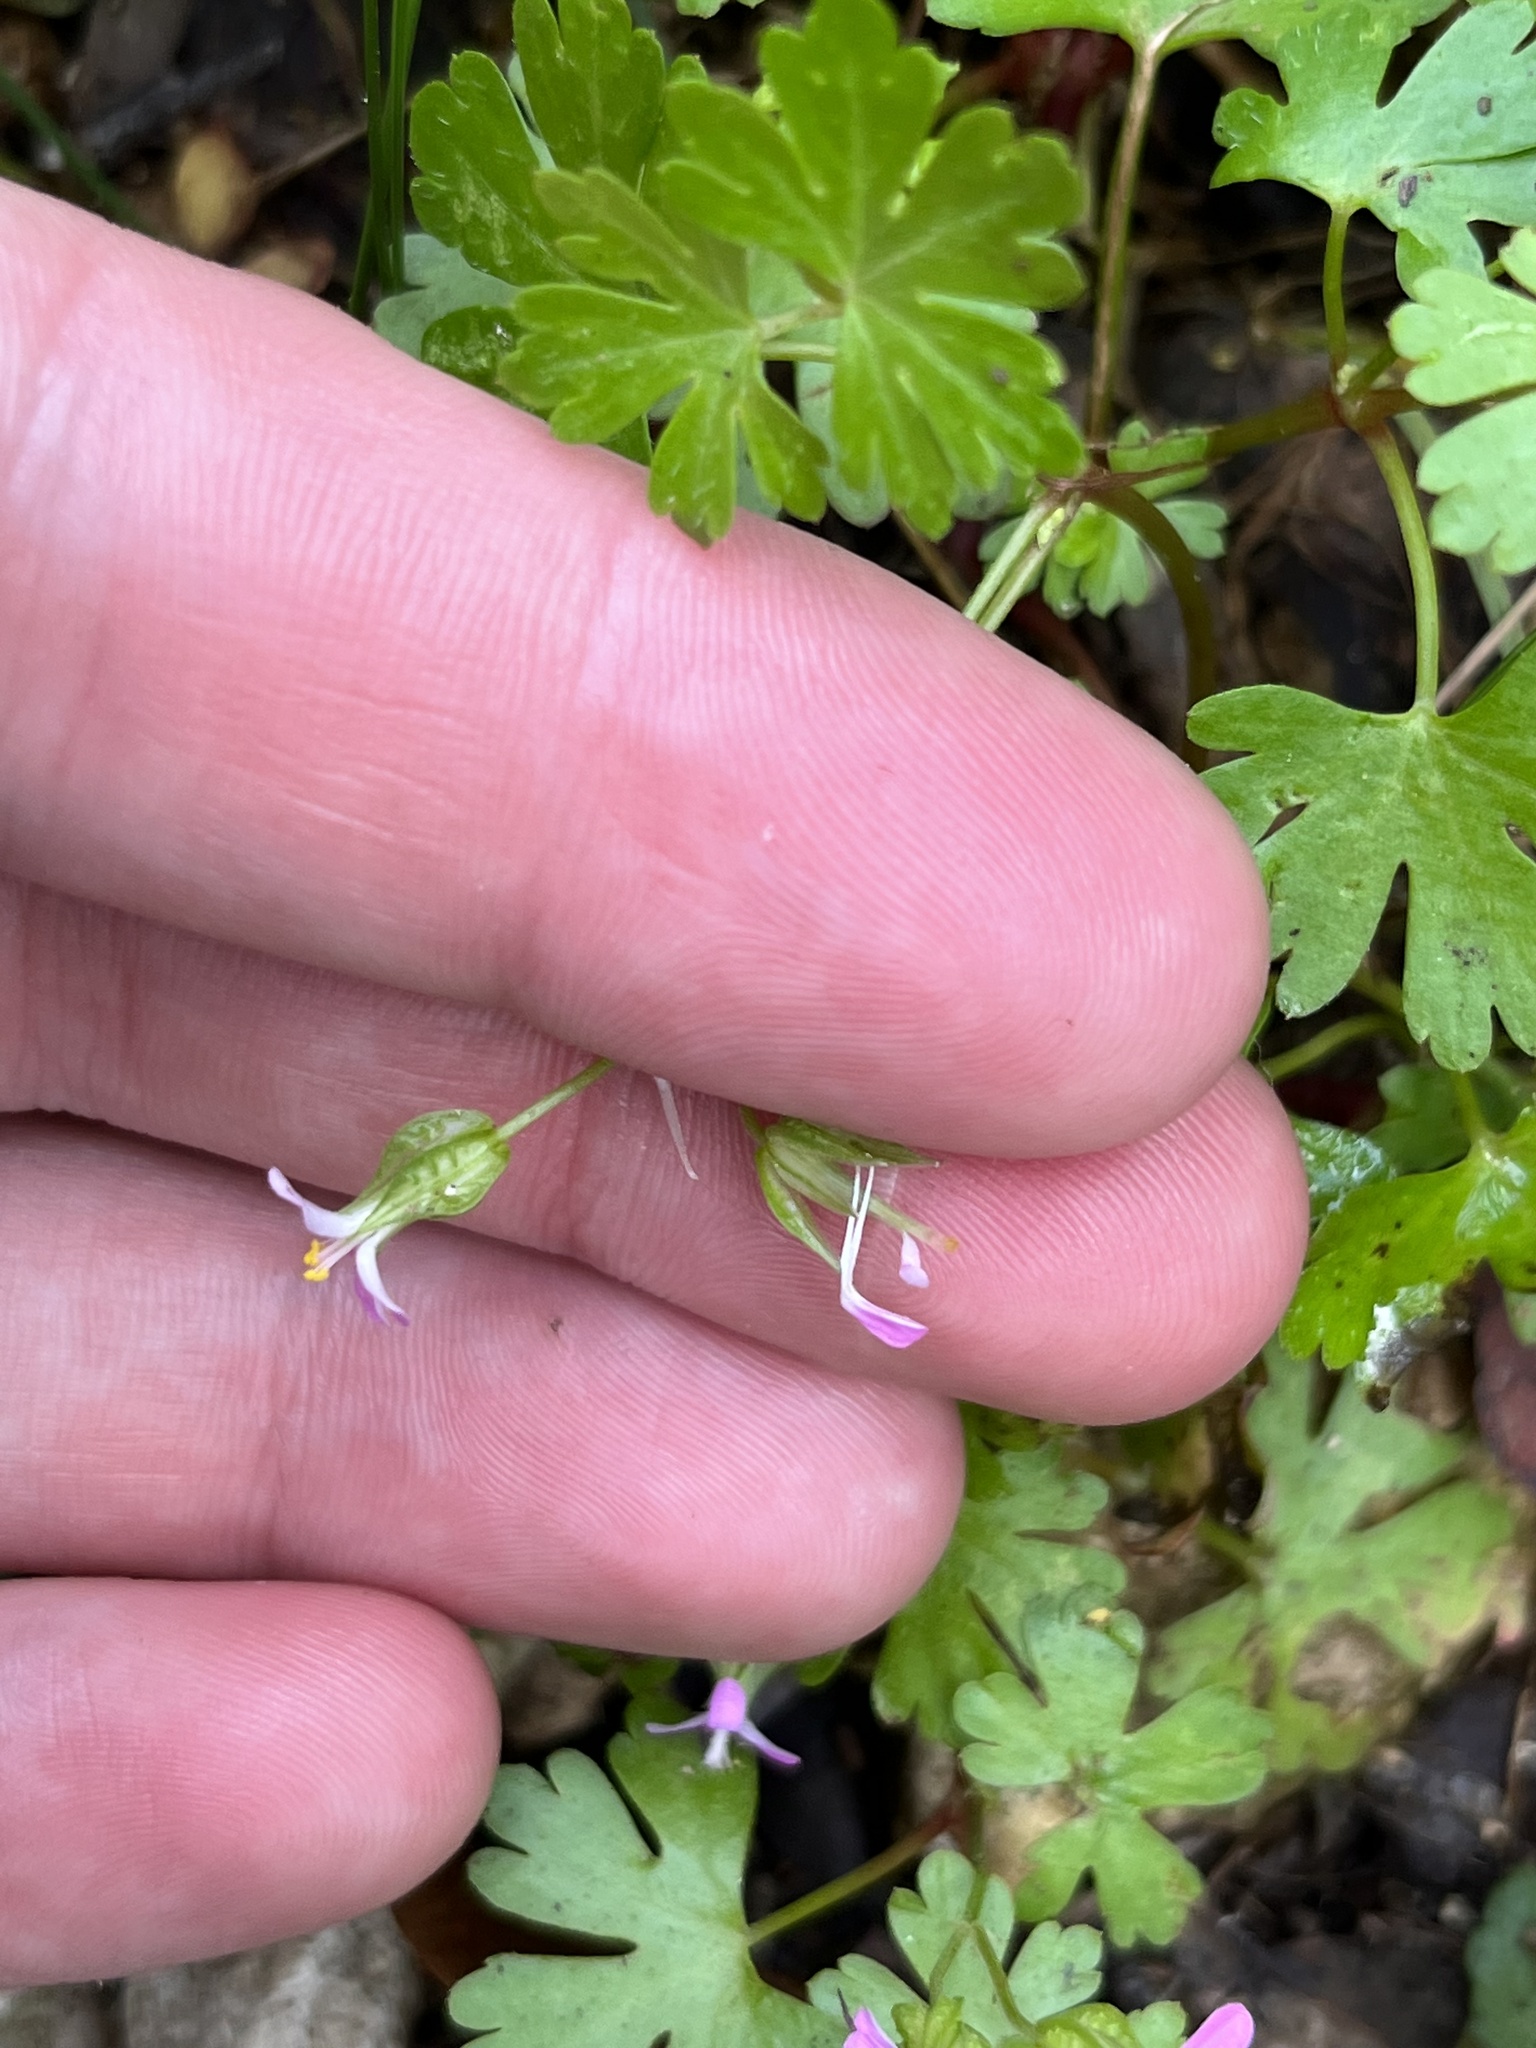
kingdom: Plantae
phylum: Tracheophyta
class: Magnoliopsida
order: Geraniales
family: Geraniaceae
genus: Geranium
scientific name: Geranium lucidum
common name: Shining crane's-bill
